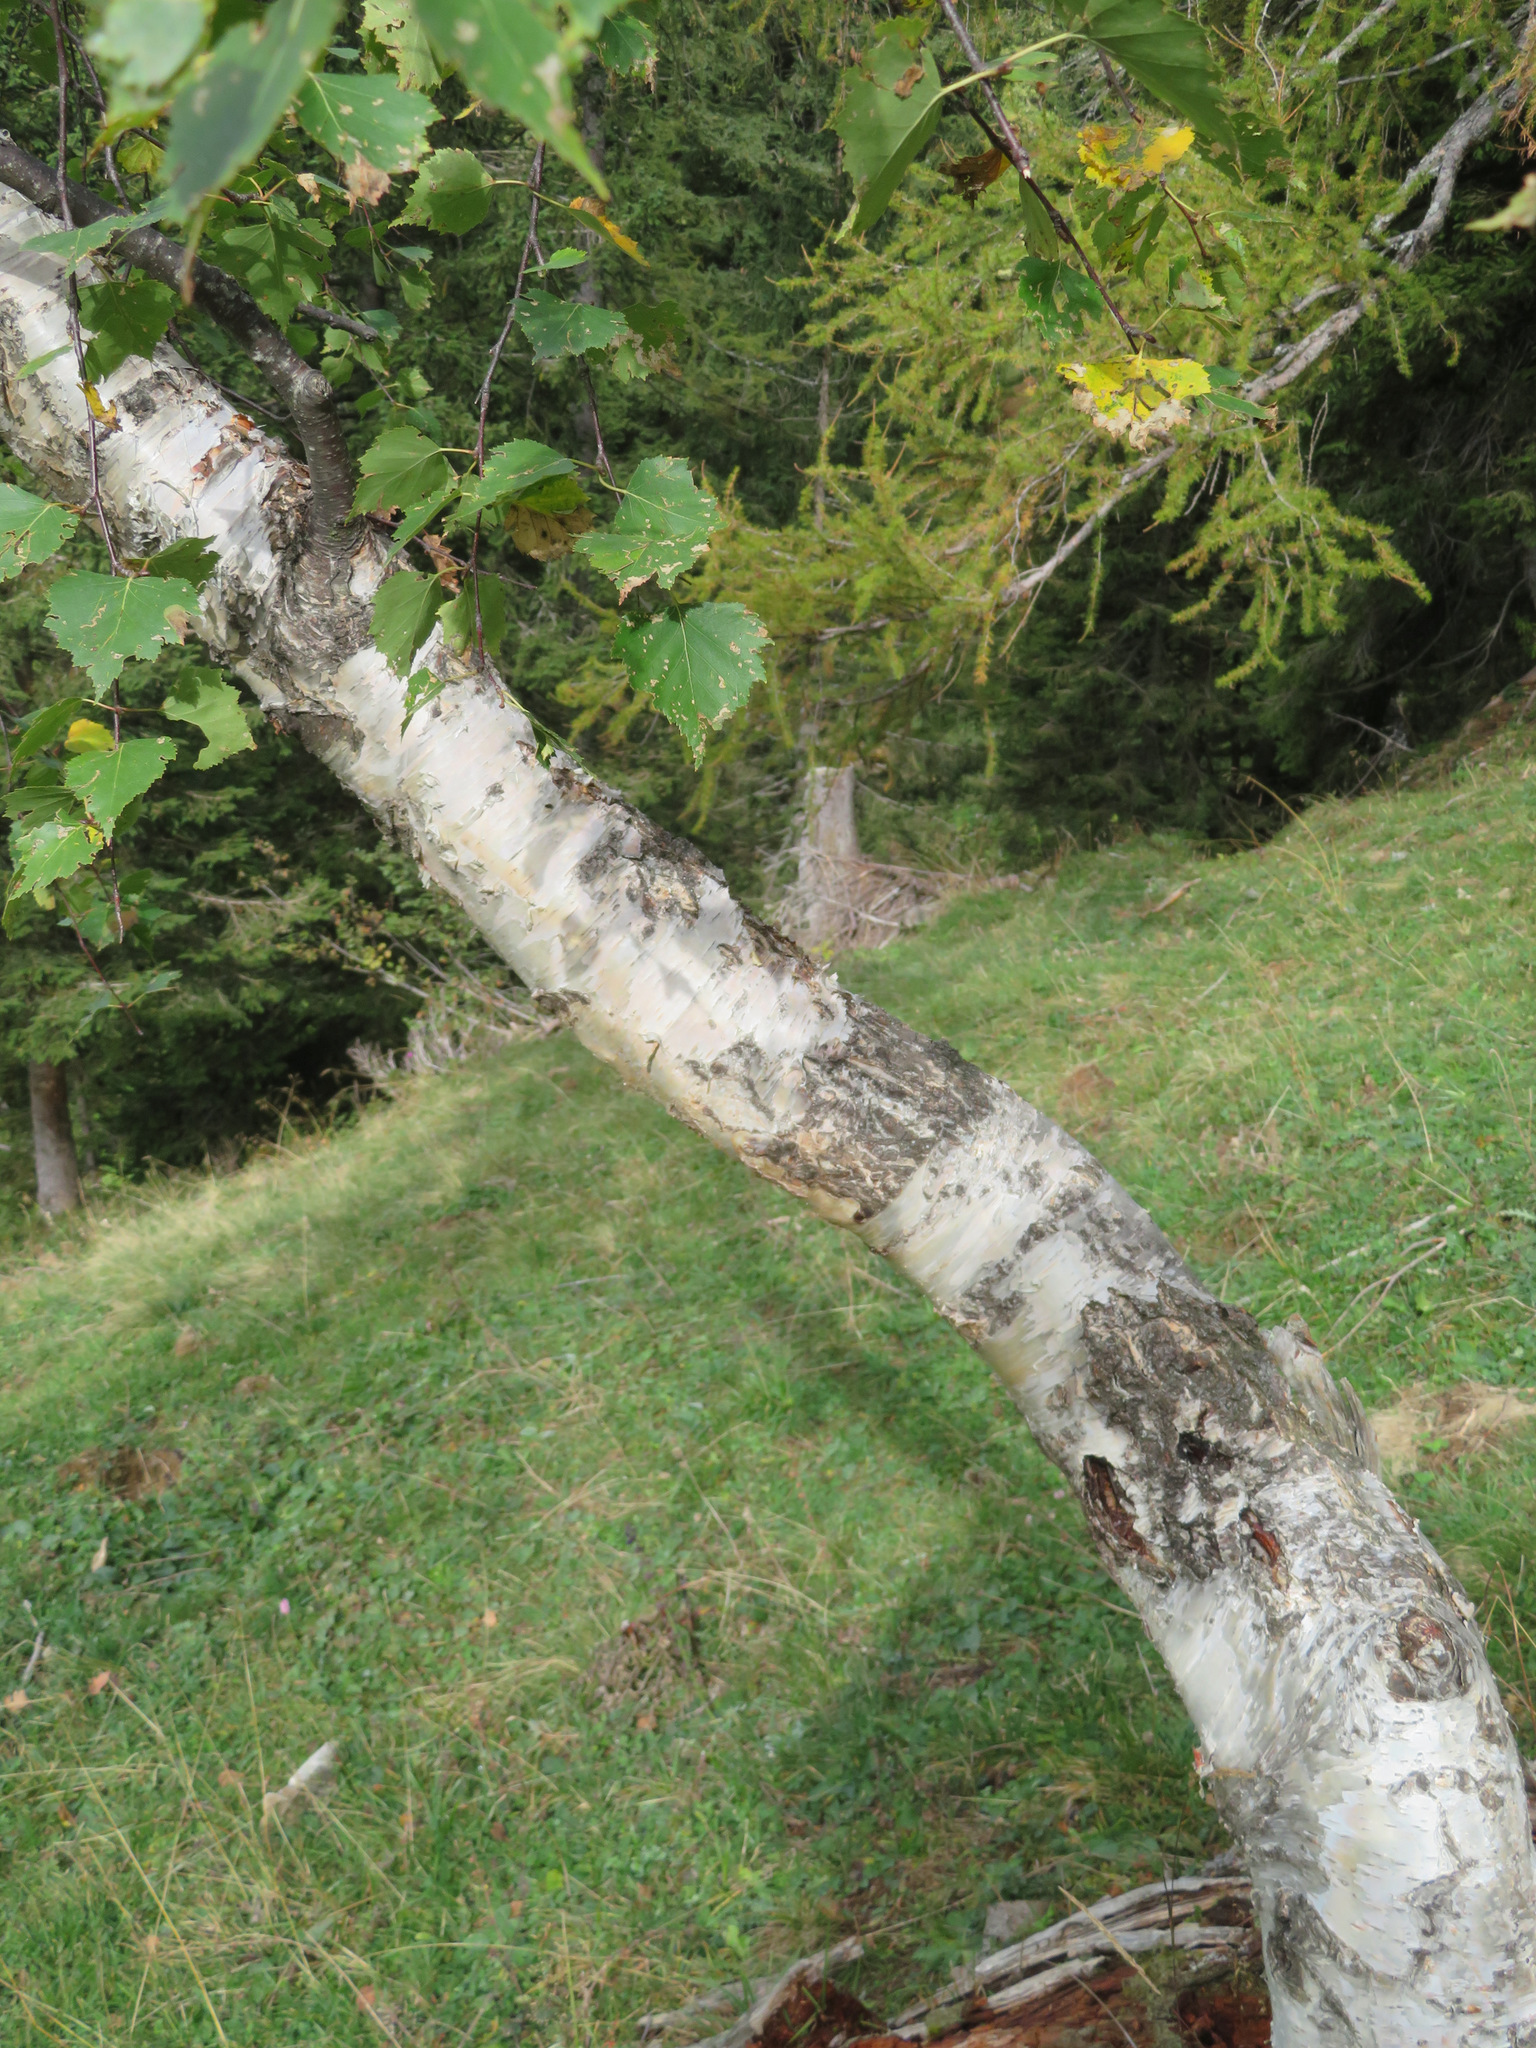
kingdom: Plantae
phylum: Tracheophyta
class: Magnoliopsida
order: Fagales
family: Betulaceae
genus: Betula
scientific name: Betula pendula
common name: Silver birch
